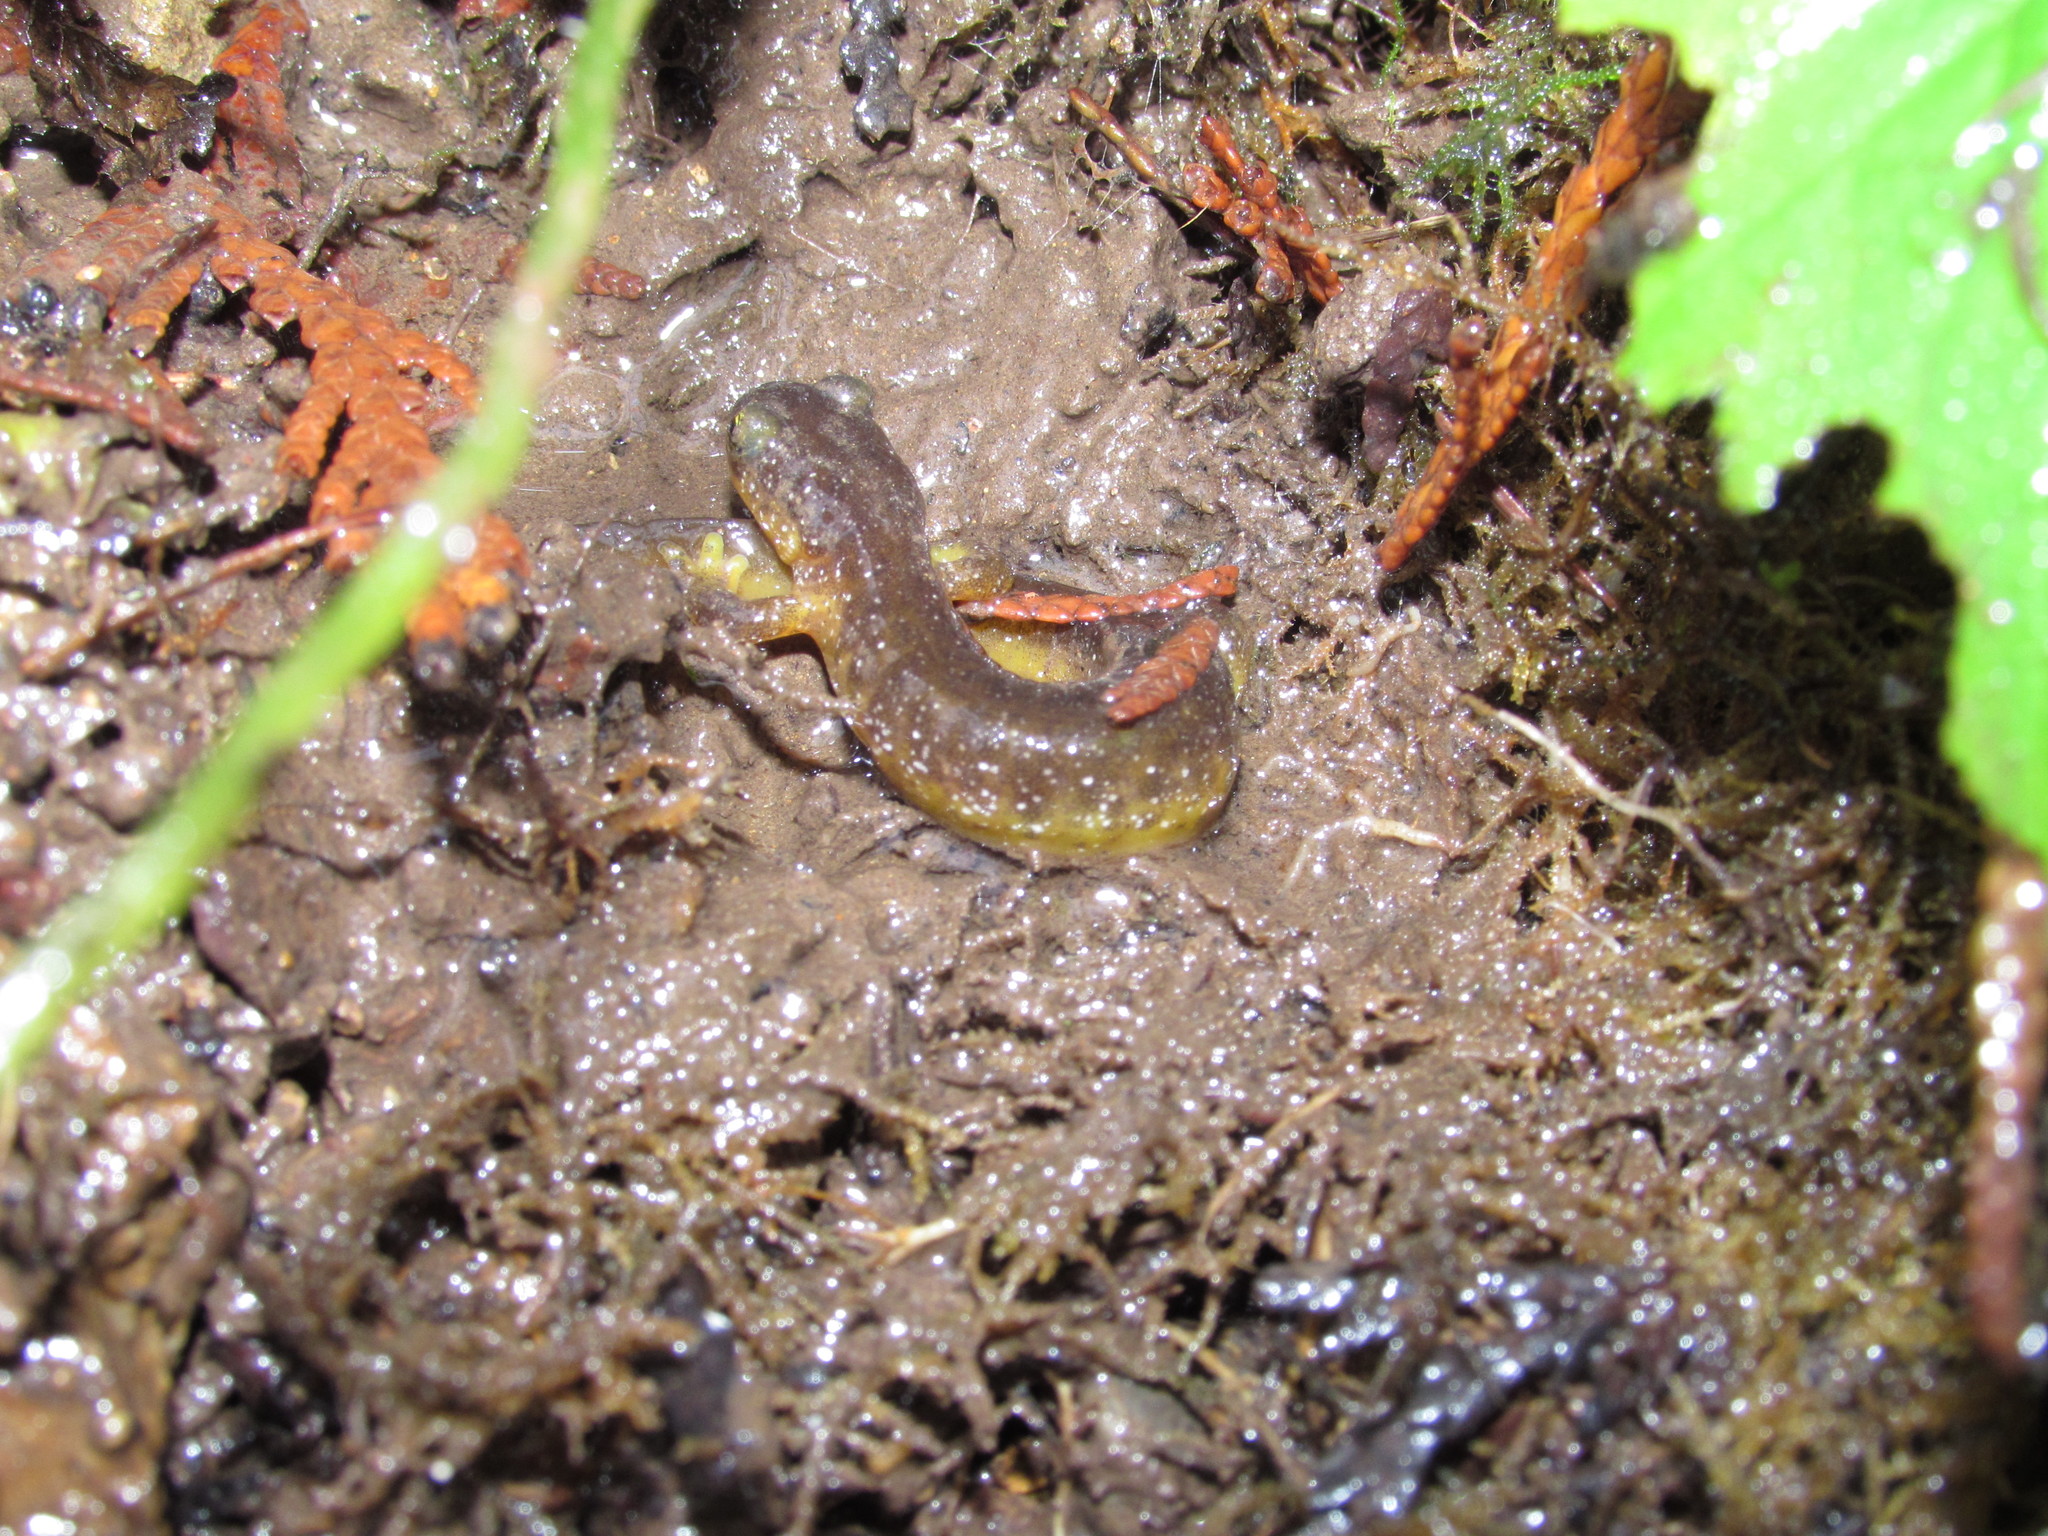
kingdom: Animalia
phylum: Chordata
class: Amphibia
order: Caudata
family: Rhyacotritonidae
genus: Rhyacotriton
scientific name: Rhyacotriton kezeri
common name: Columbia torrent salamander
